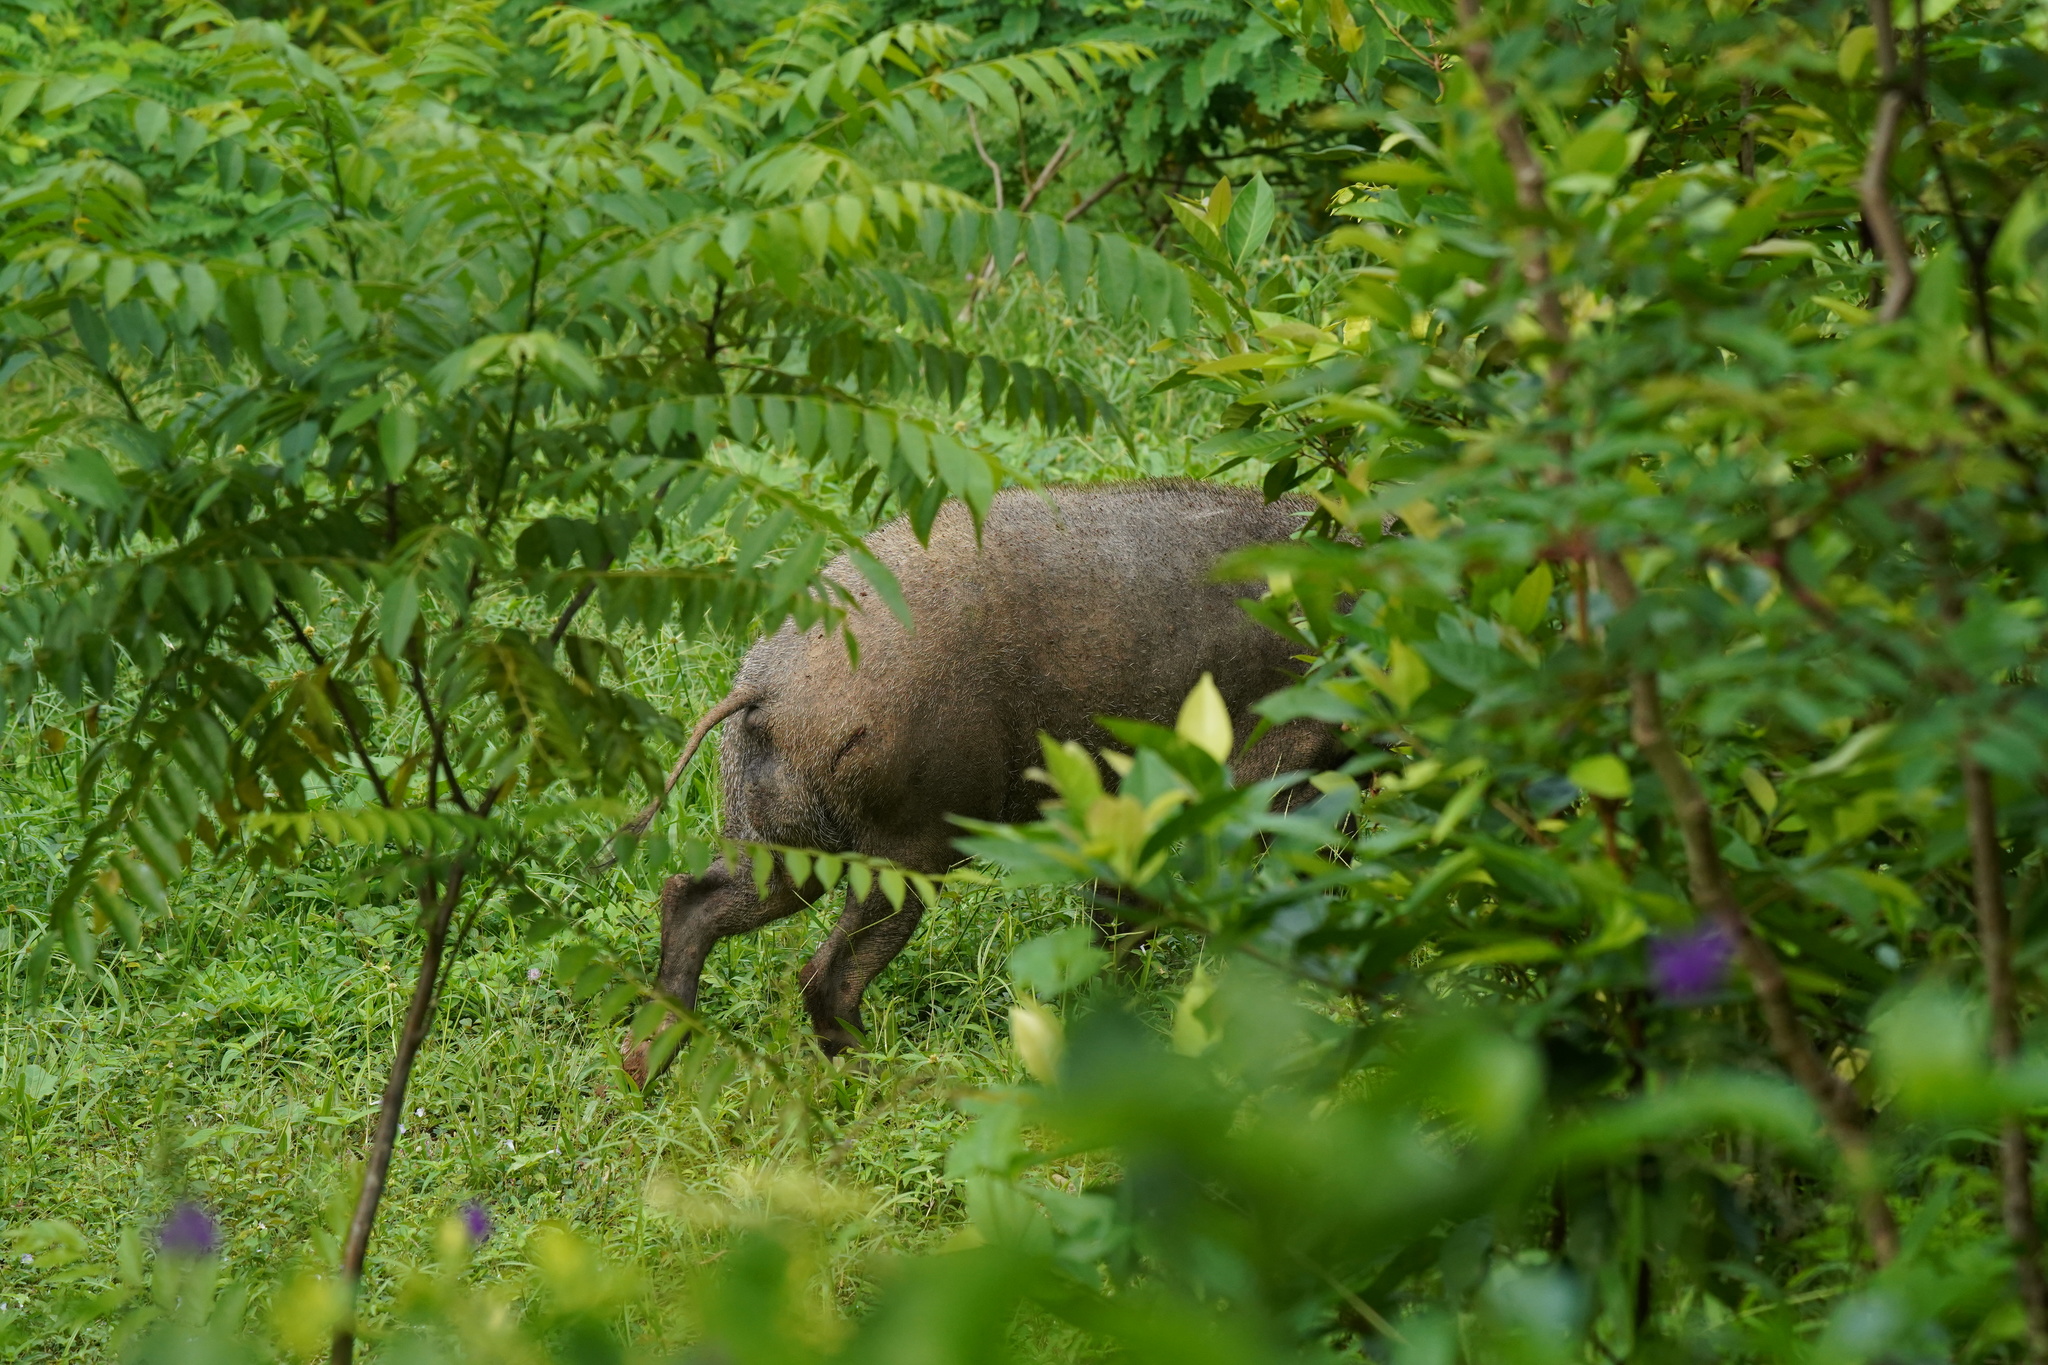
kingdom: Animalia
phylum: Chordata
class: Mammalia
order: Artiodactyla
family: Suidae
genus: Sus
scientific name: Sus scrofa
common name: Wild boar
